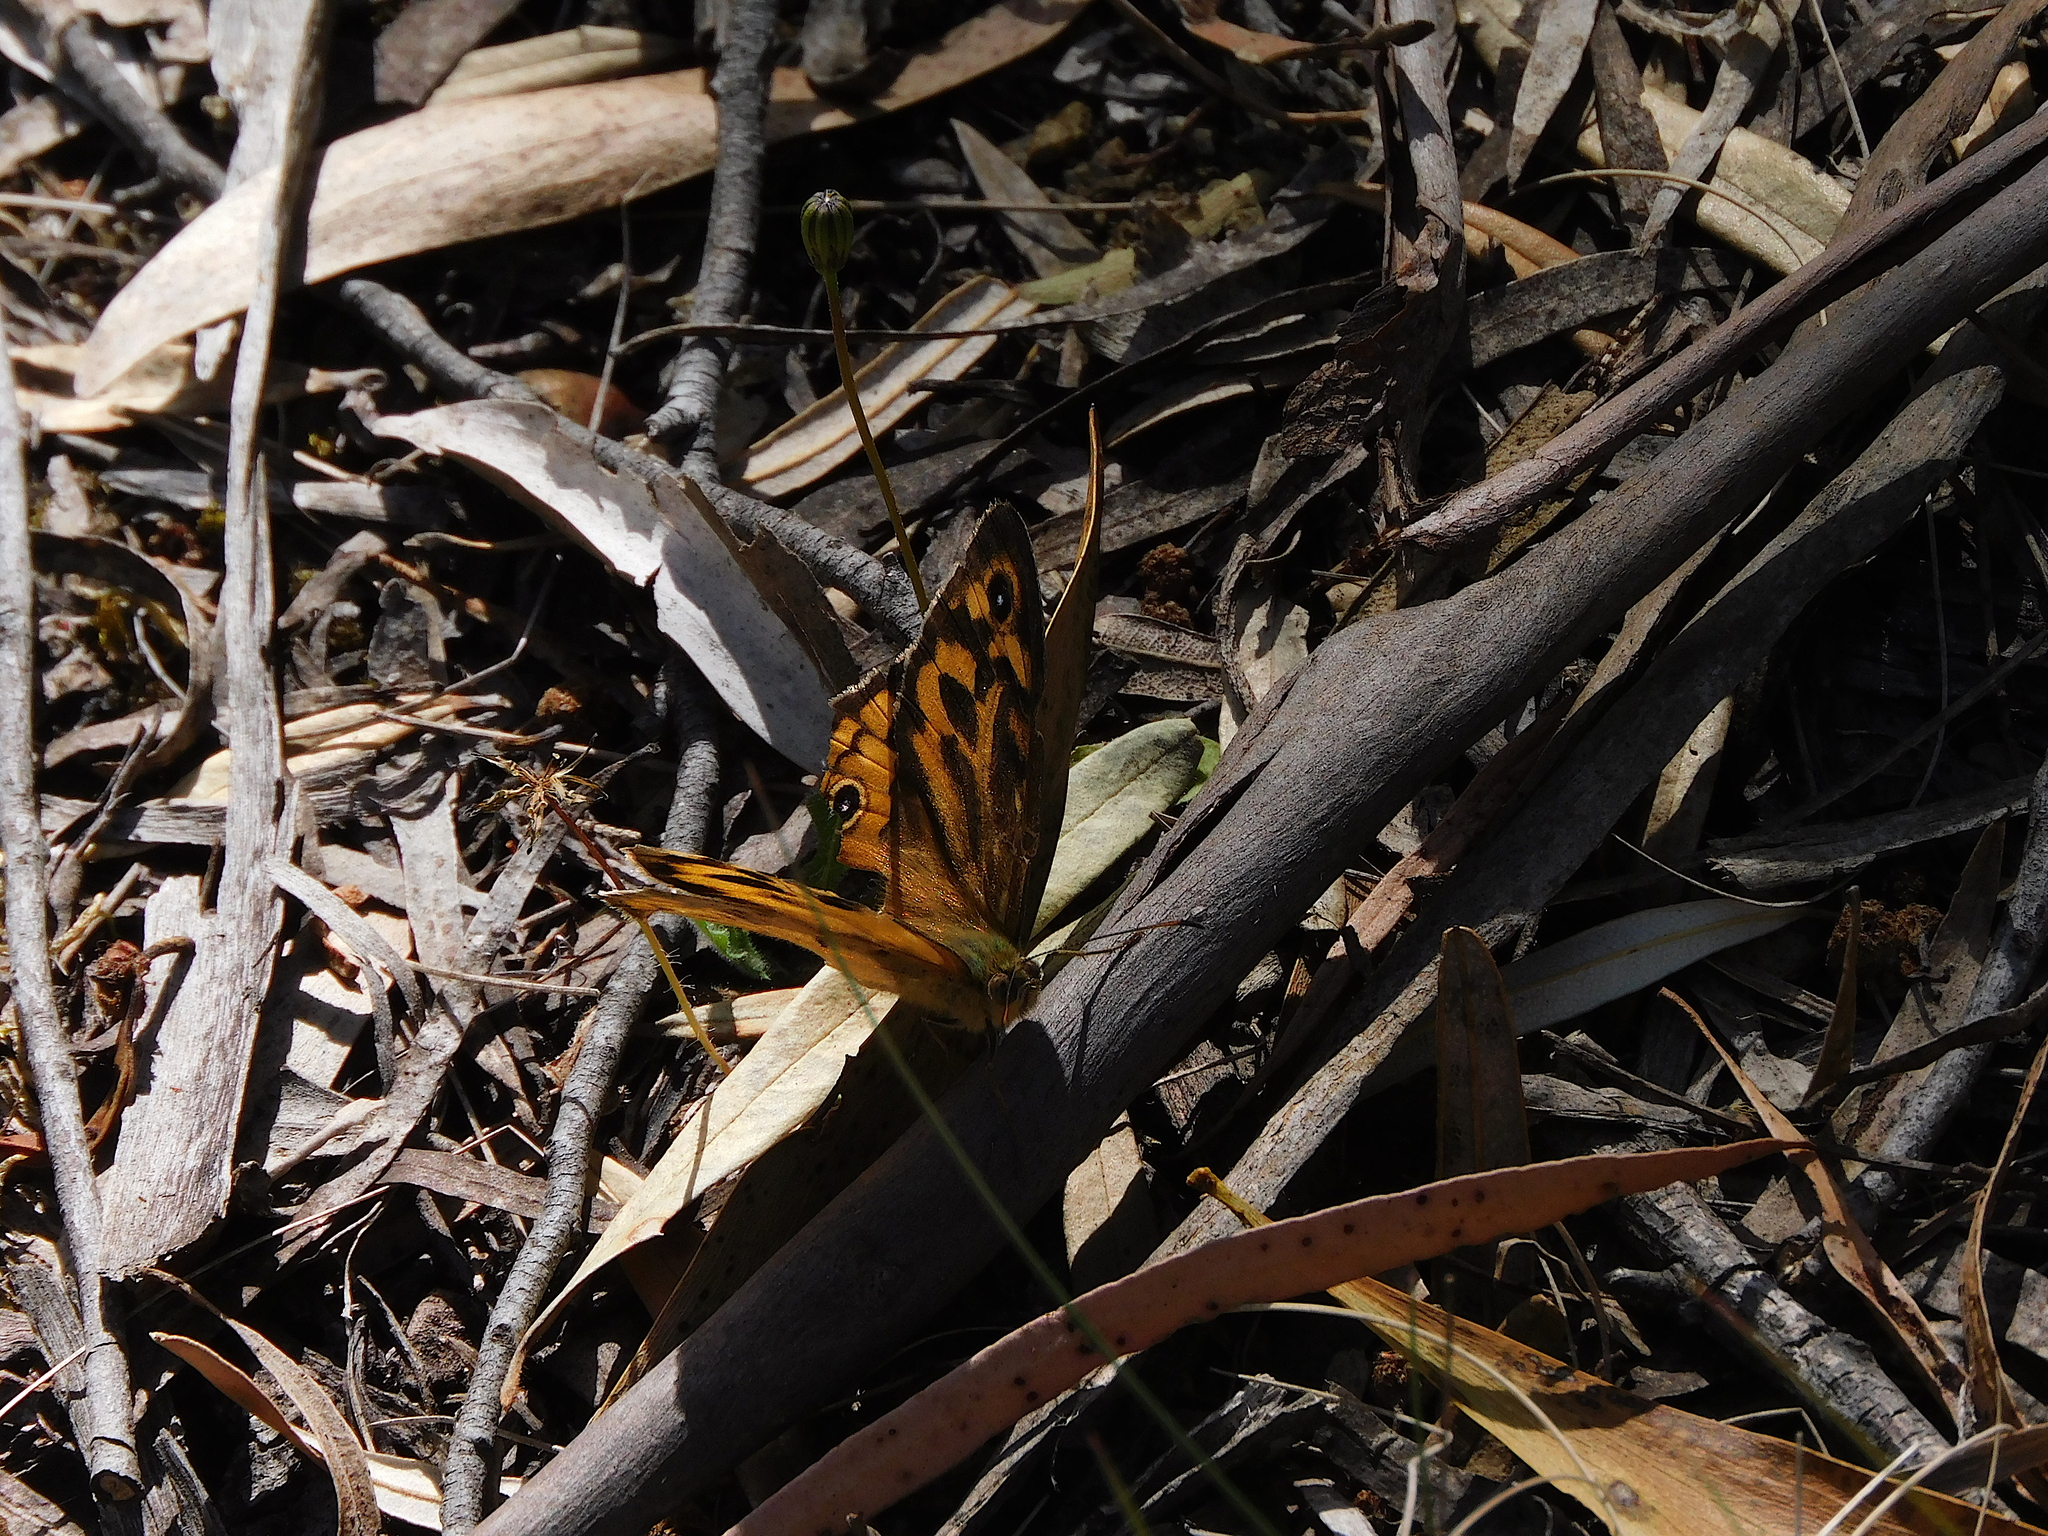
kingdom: Animalia
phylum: Arthropoda
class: Insecta
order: Lepidoptera
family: Nymphalidae
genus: Heteronympha
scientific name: Heteronympha merope
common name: Common brown
